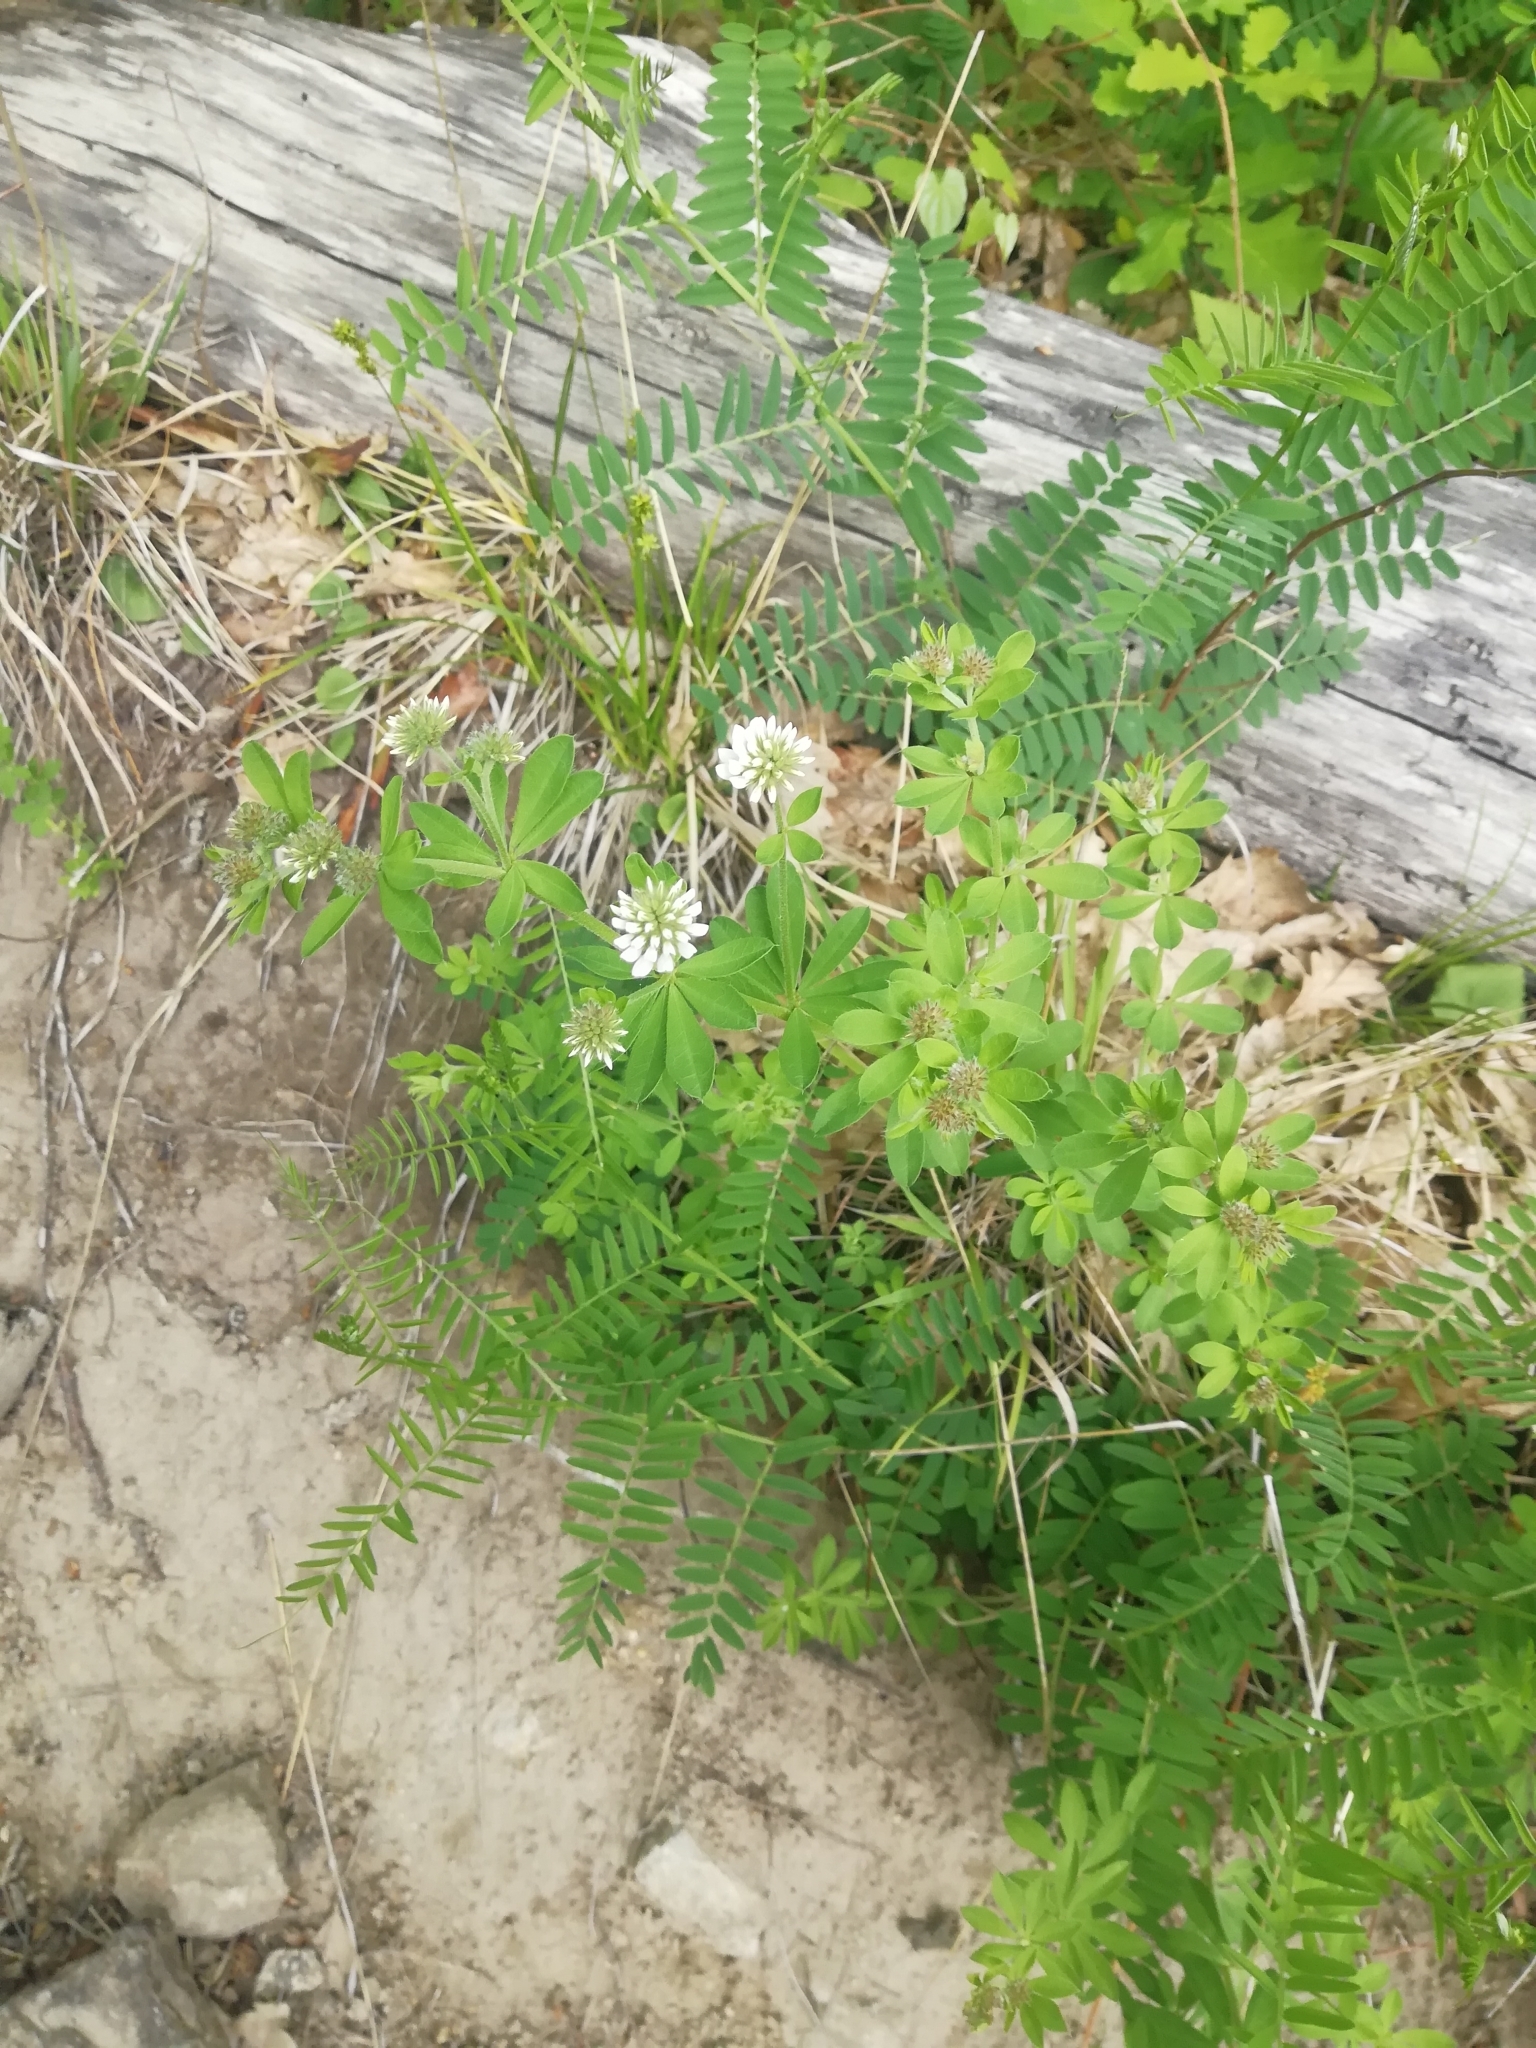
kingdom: Plantae
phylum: Tracheophyta
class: Magnoliopsida
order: Fabales
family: Fabaceae
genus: Lotus
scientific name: Lotus graecus
